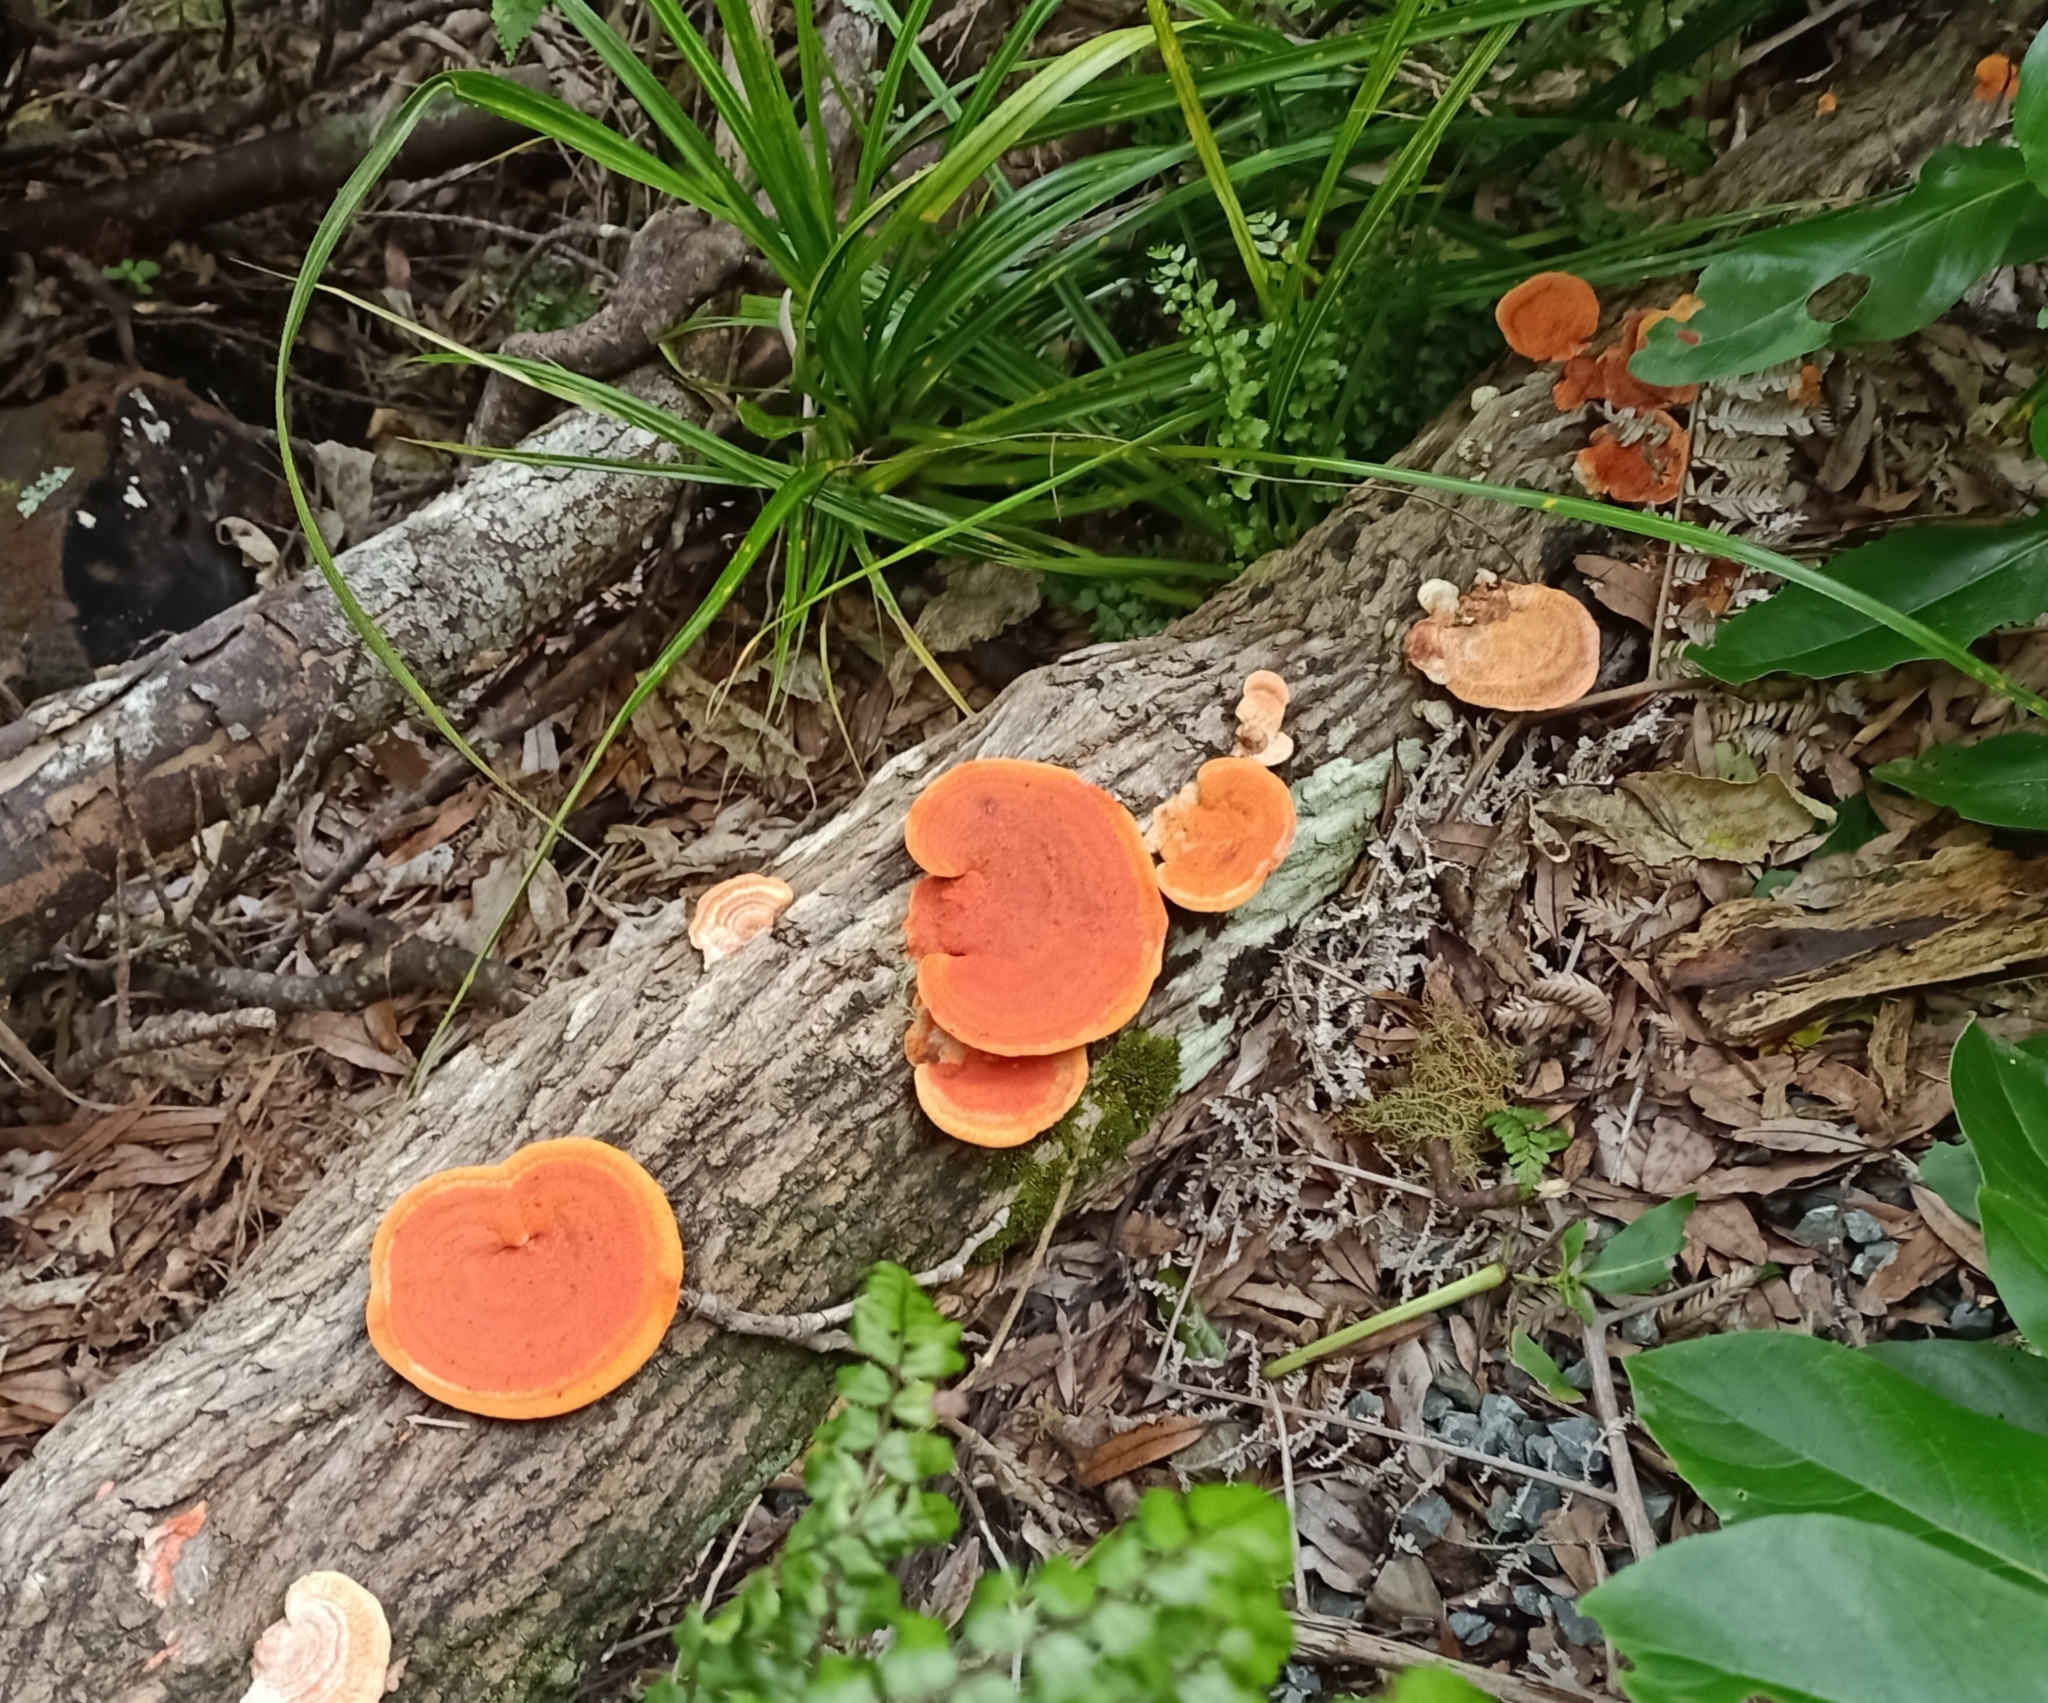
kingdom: Fungi
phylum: Basidiomycota
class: Agaricomycetes
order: Polyporales
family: Polyporaceae
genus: Trametes
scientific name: Trametes coccinea
